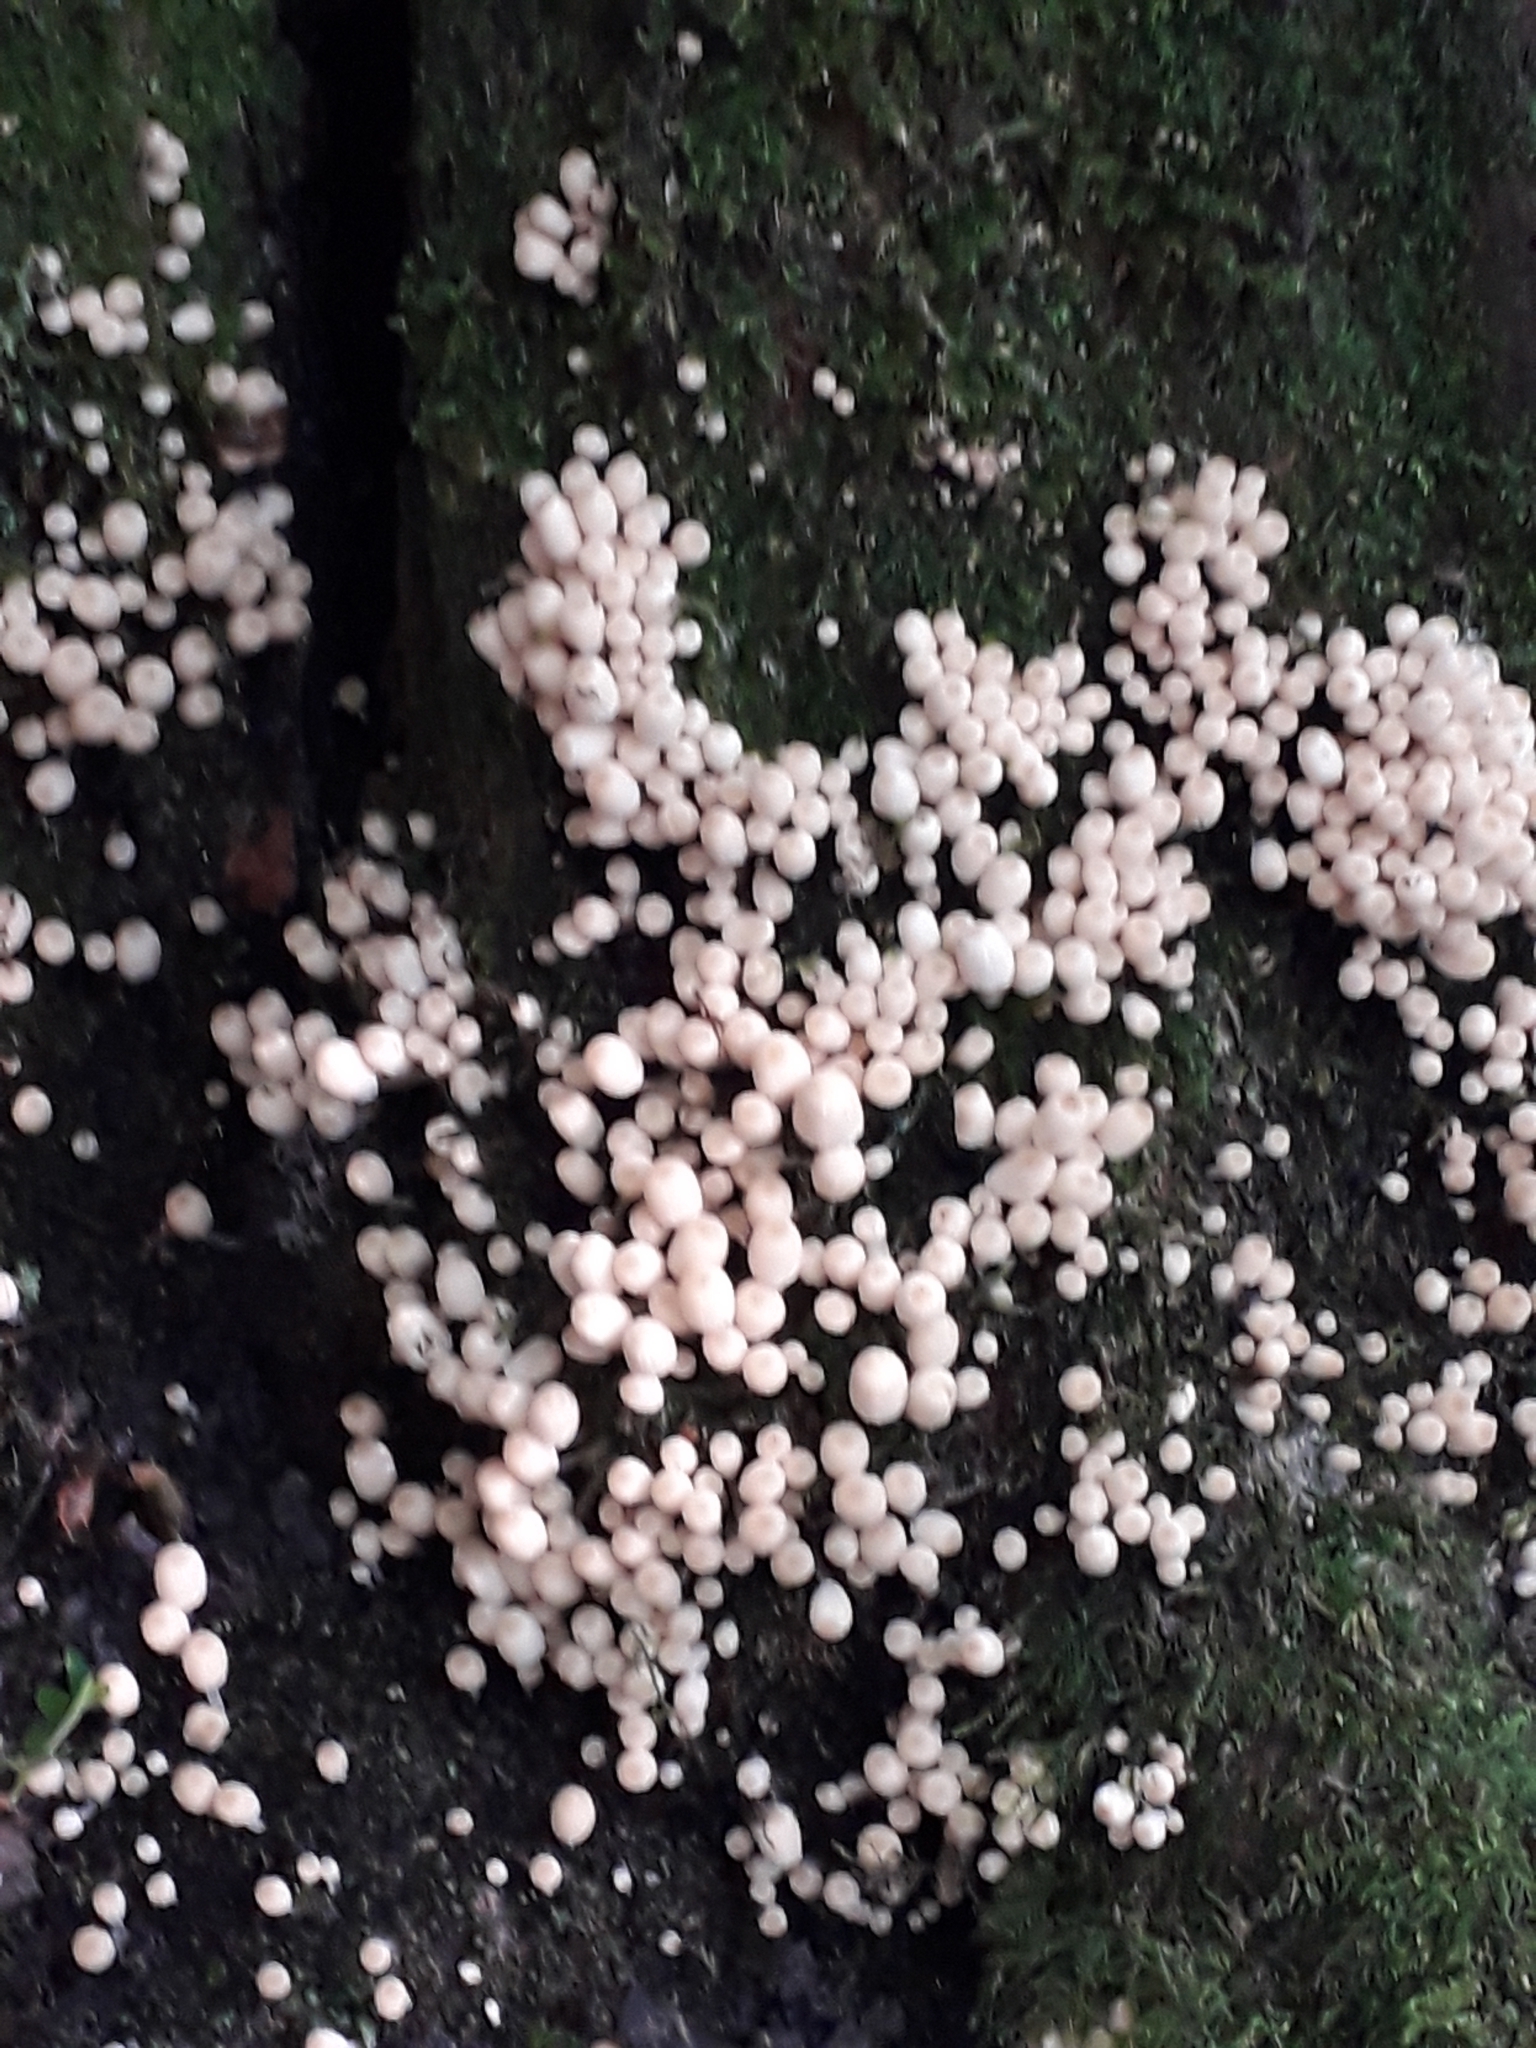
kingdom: Fungi
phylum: Basidiomycota
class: Agaricomycetes
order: Agaricales
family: Psathyrellaceae
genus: Coprinellus
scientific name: Coprinellus disseminatus
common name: Fairies' bonnets
